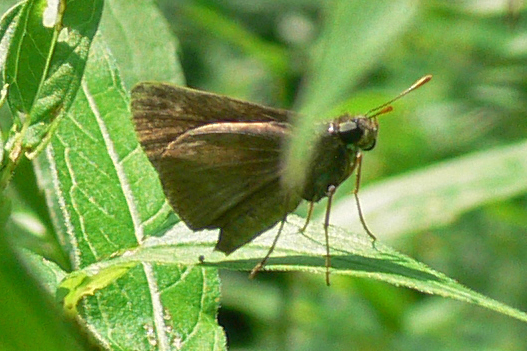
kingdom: Animalia
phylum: Arthropoda
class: Insecta
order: Lepidoptera
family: Hesperiidae
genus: Euphyes
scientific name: Euphyes vestris
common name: Dun skipper
